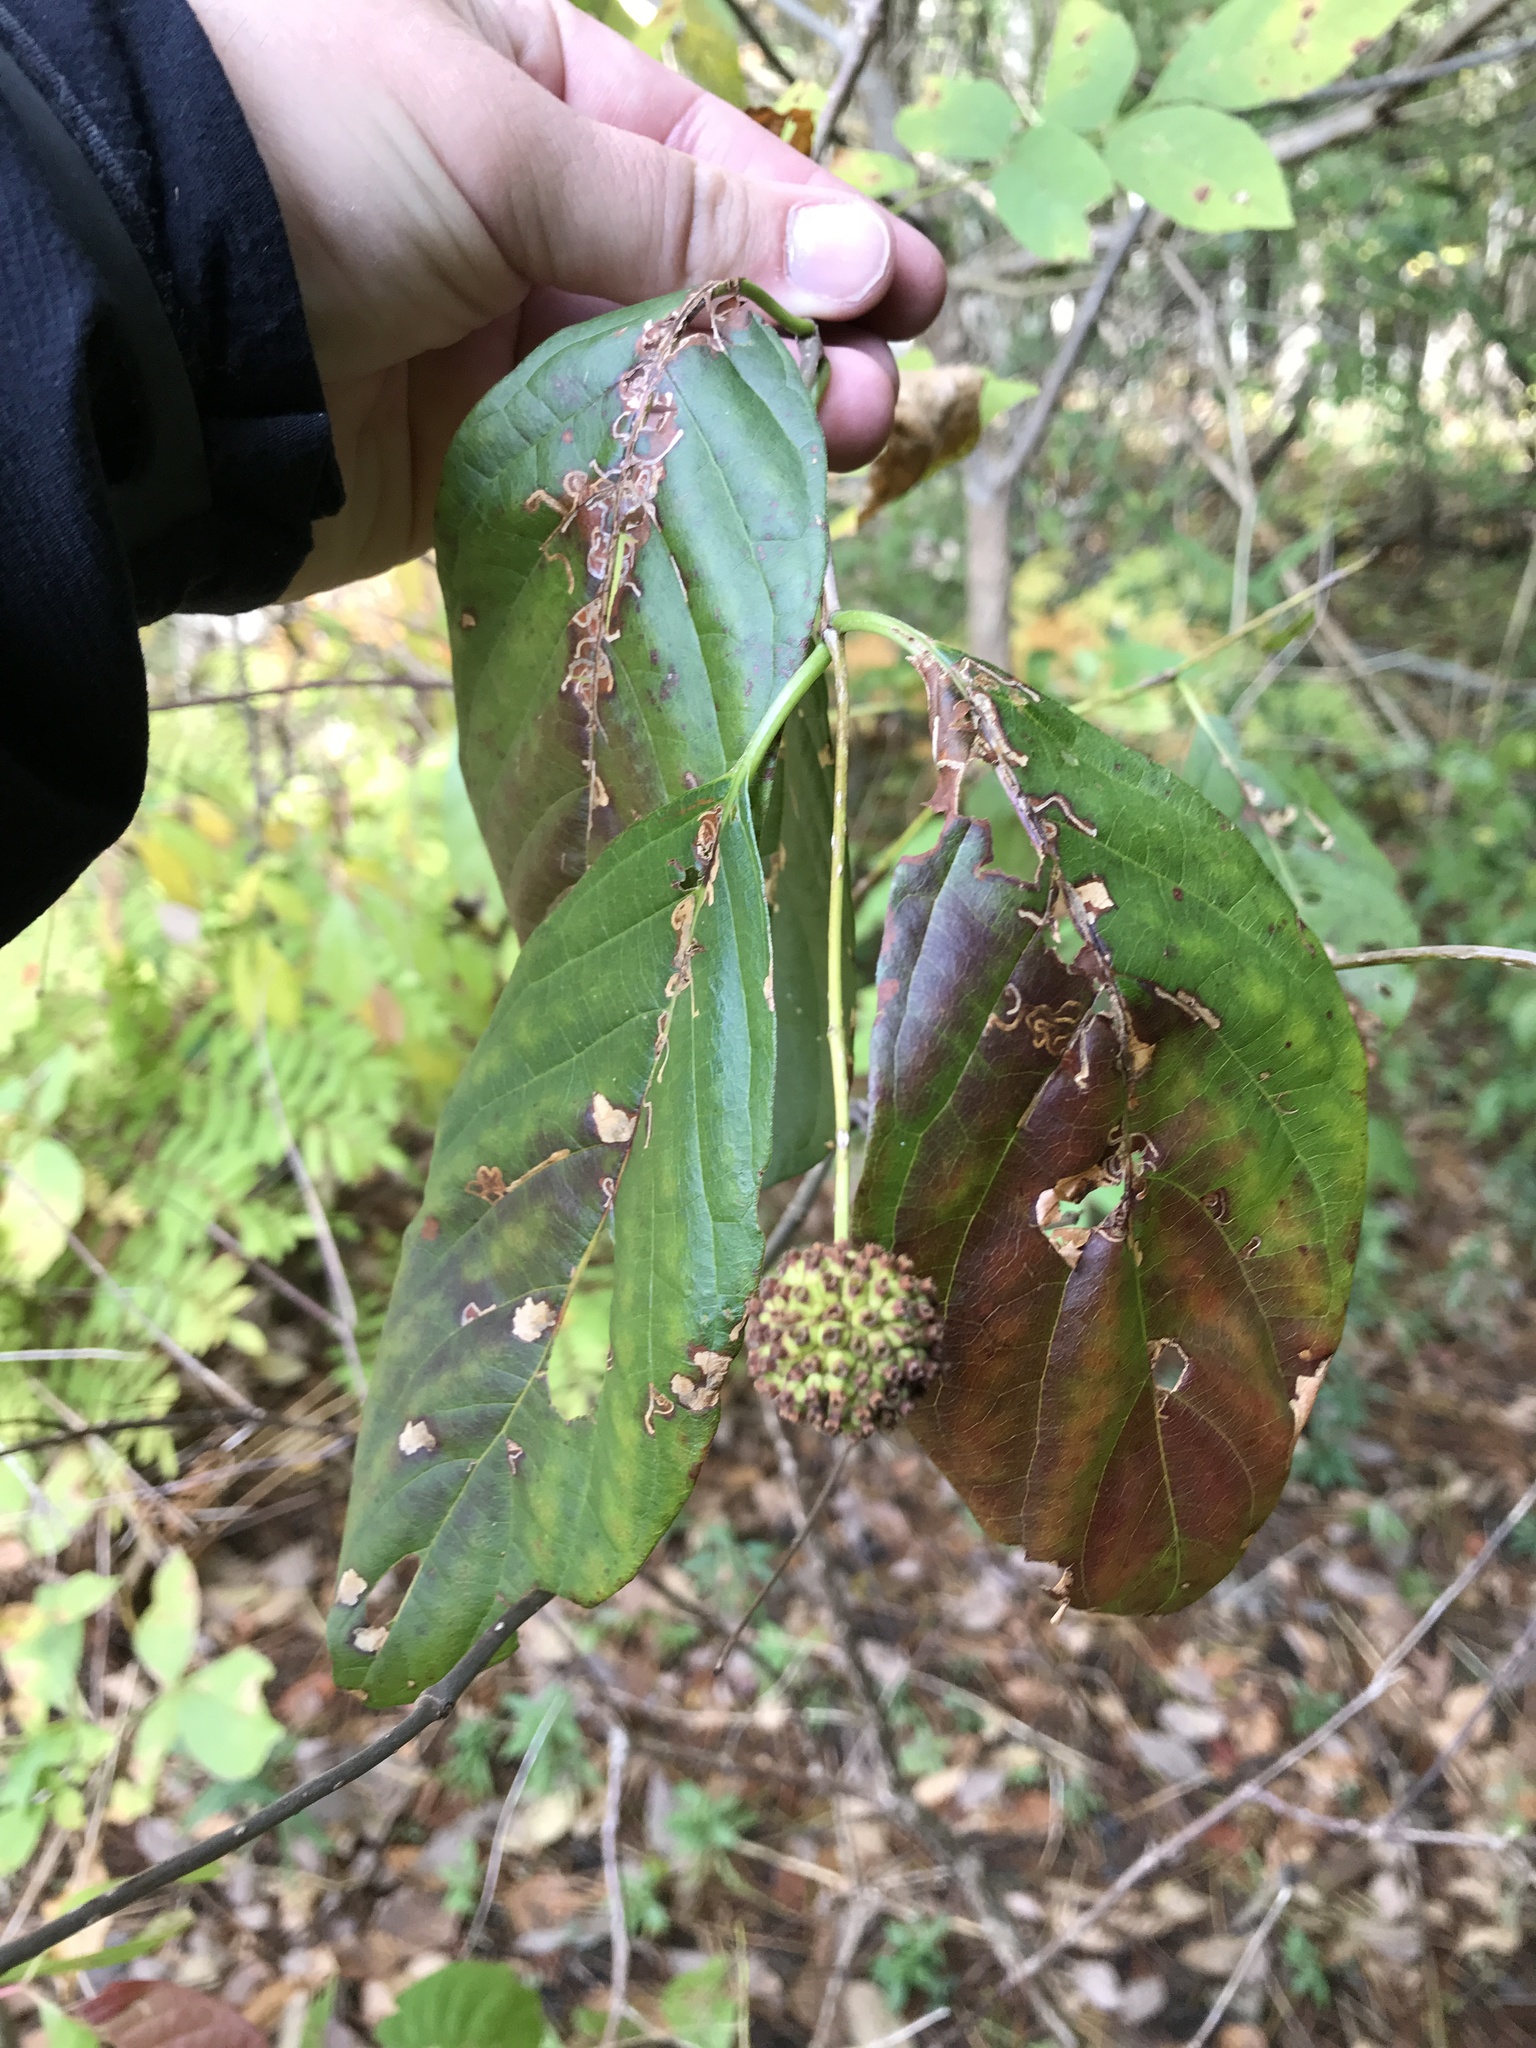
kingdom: Plantae
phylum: Tracheophyta
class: Magnoliopsida
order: Gentianales
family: Rubiaceae
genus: Cephalanthus
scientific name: Cephalanthus occidentalis
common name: Button-willow
